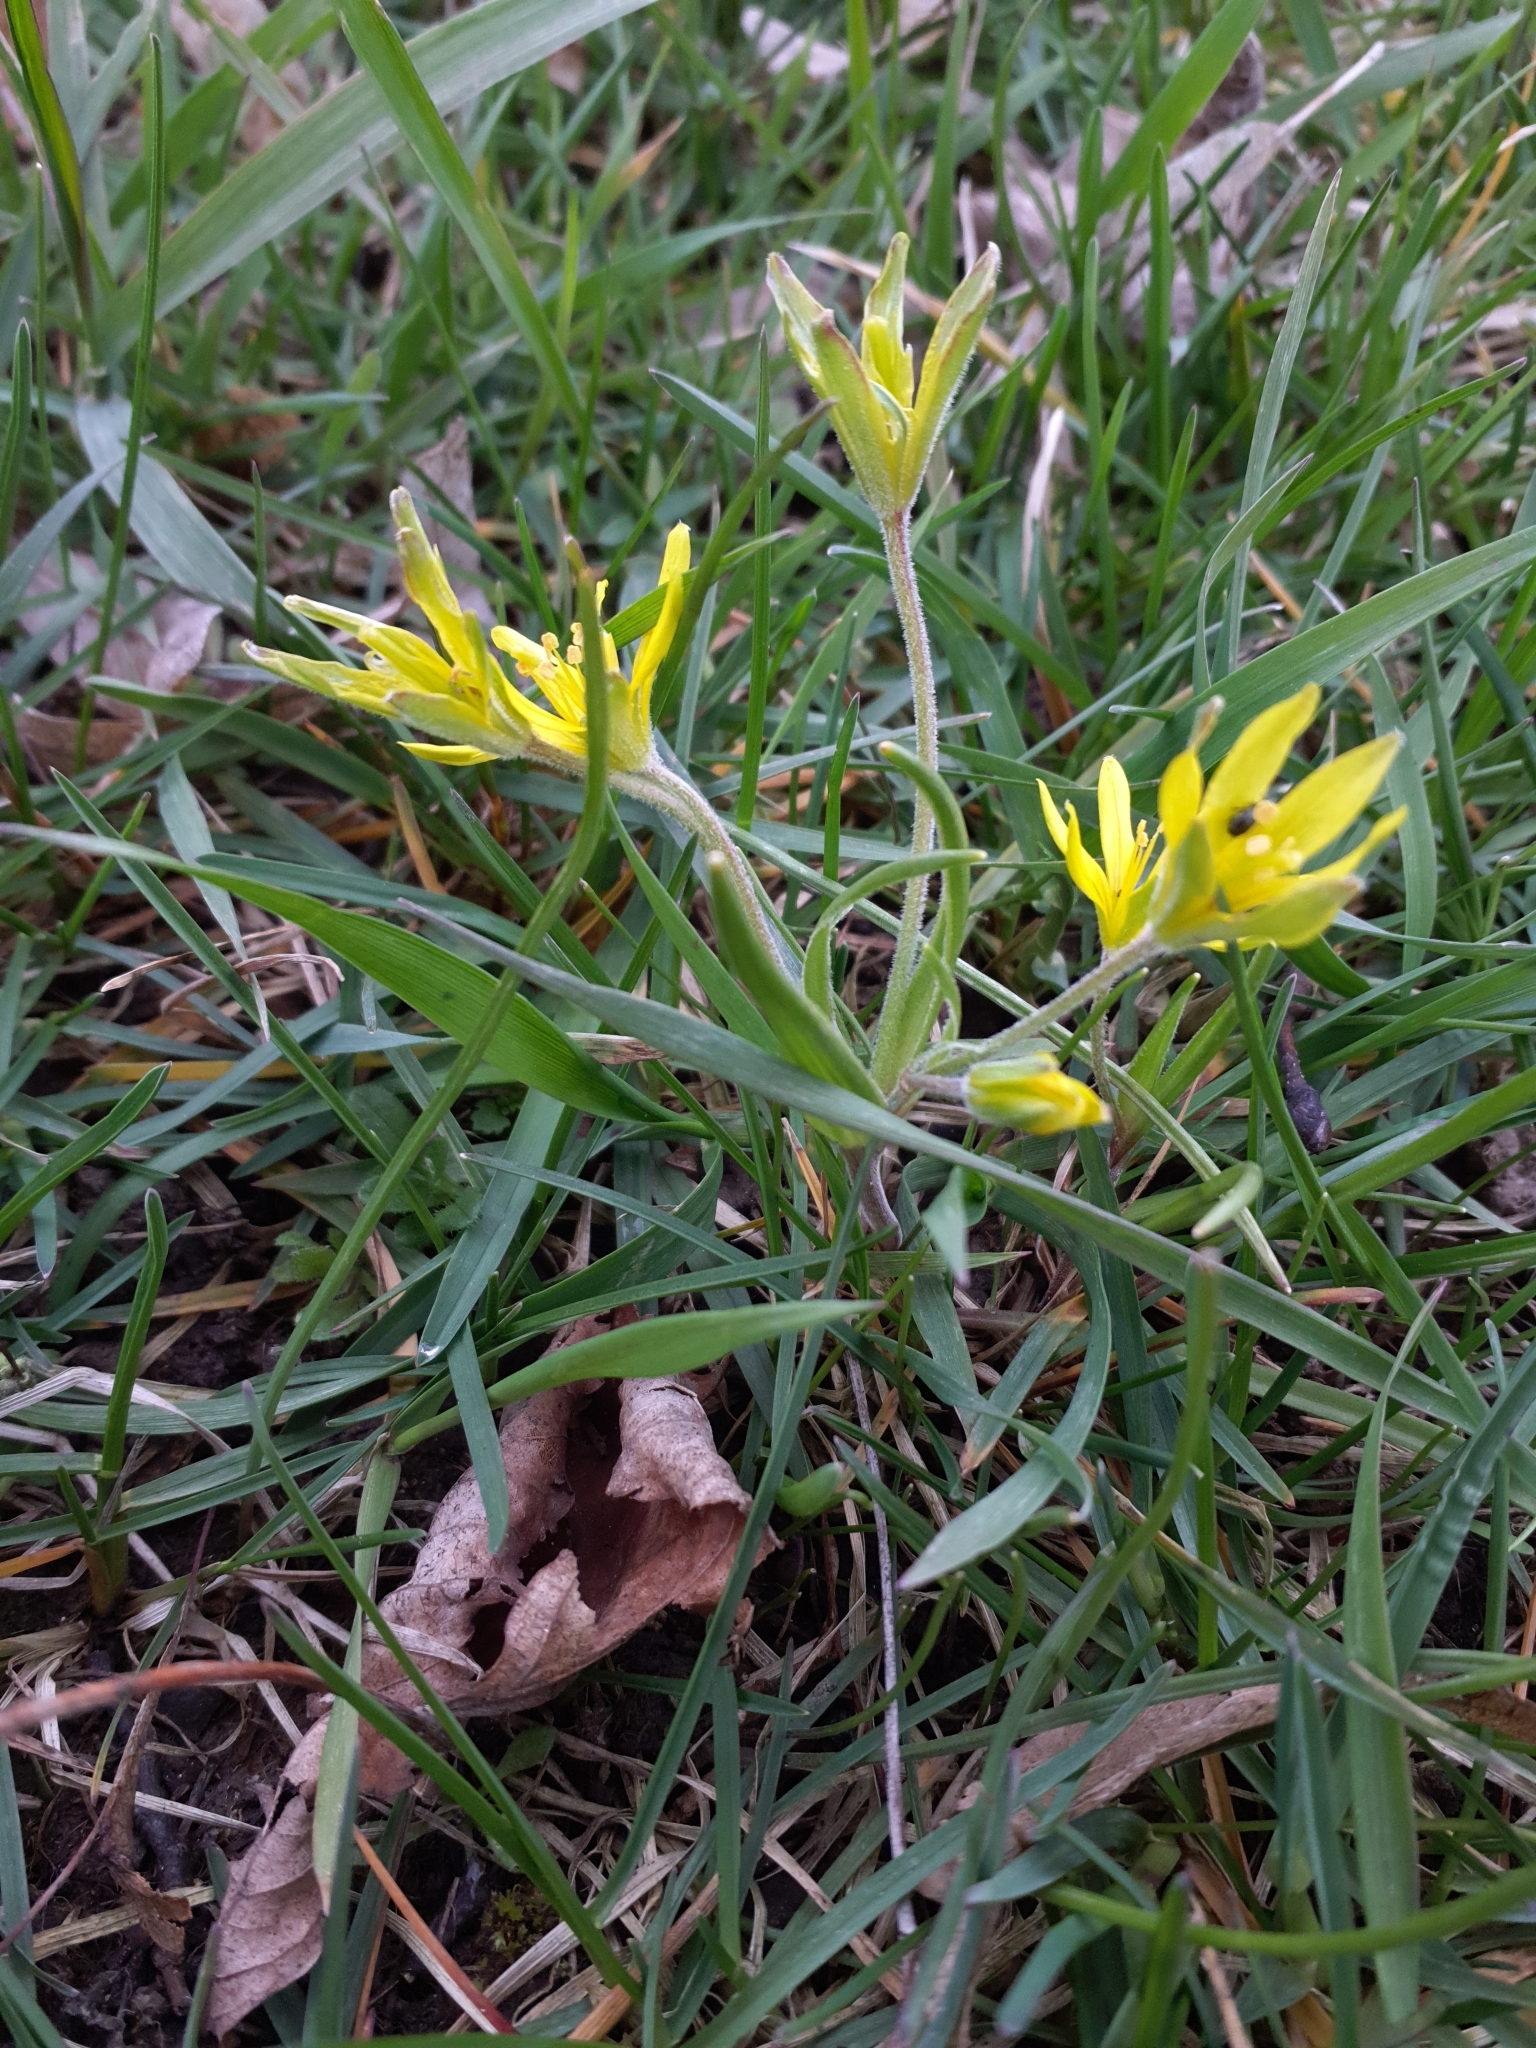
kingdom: Plantae
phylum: Tracheophyta
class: Liliopsida
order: Liliales
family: Liliaceae
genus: Gagea
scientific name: Gagea villosa
